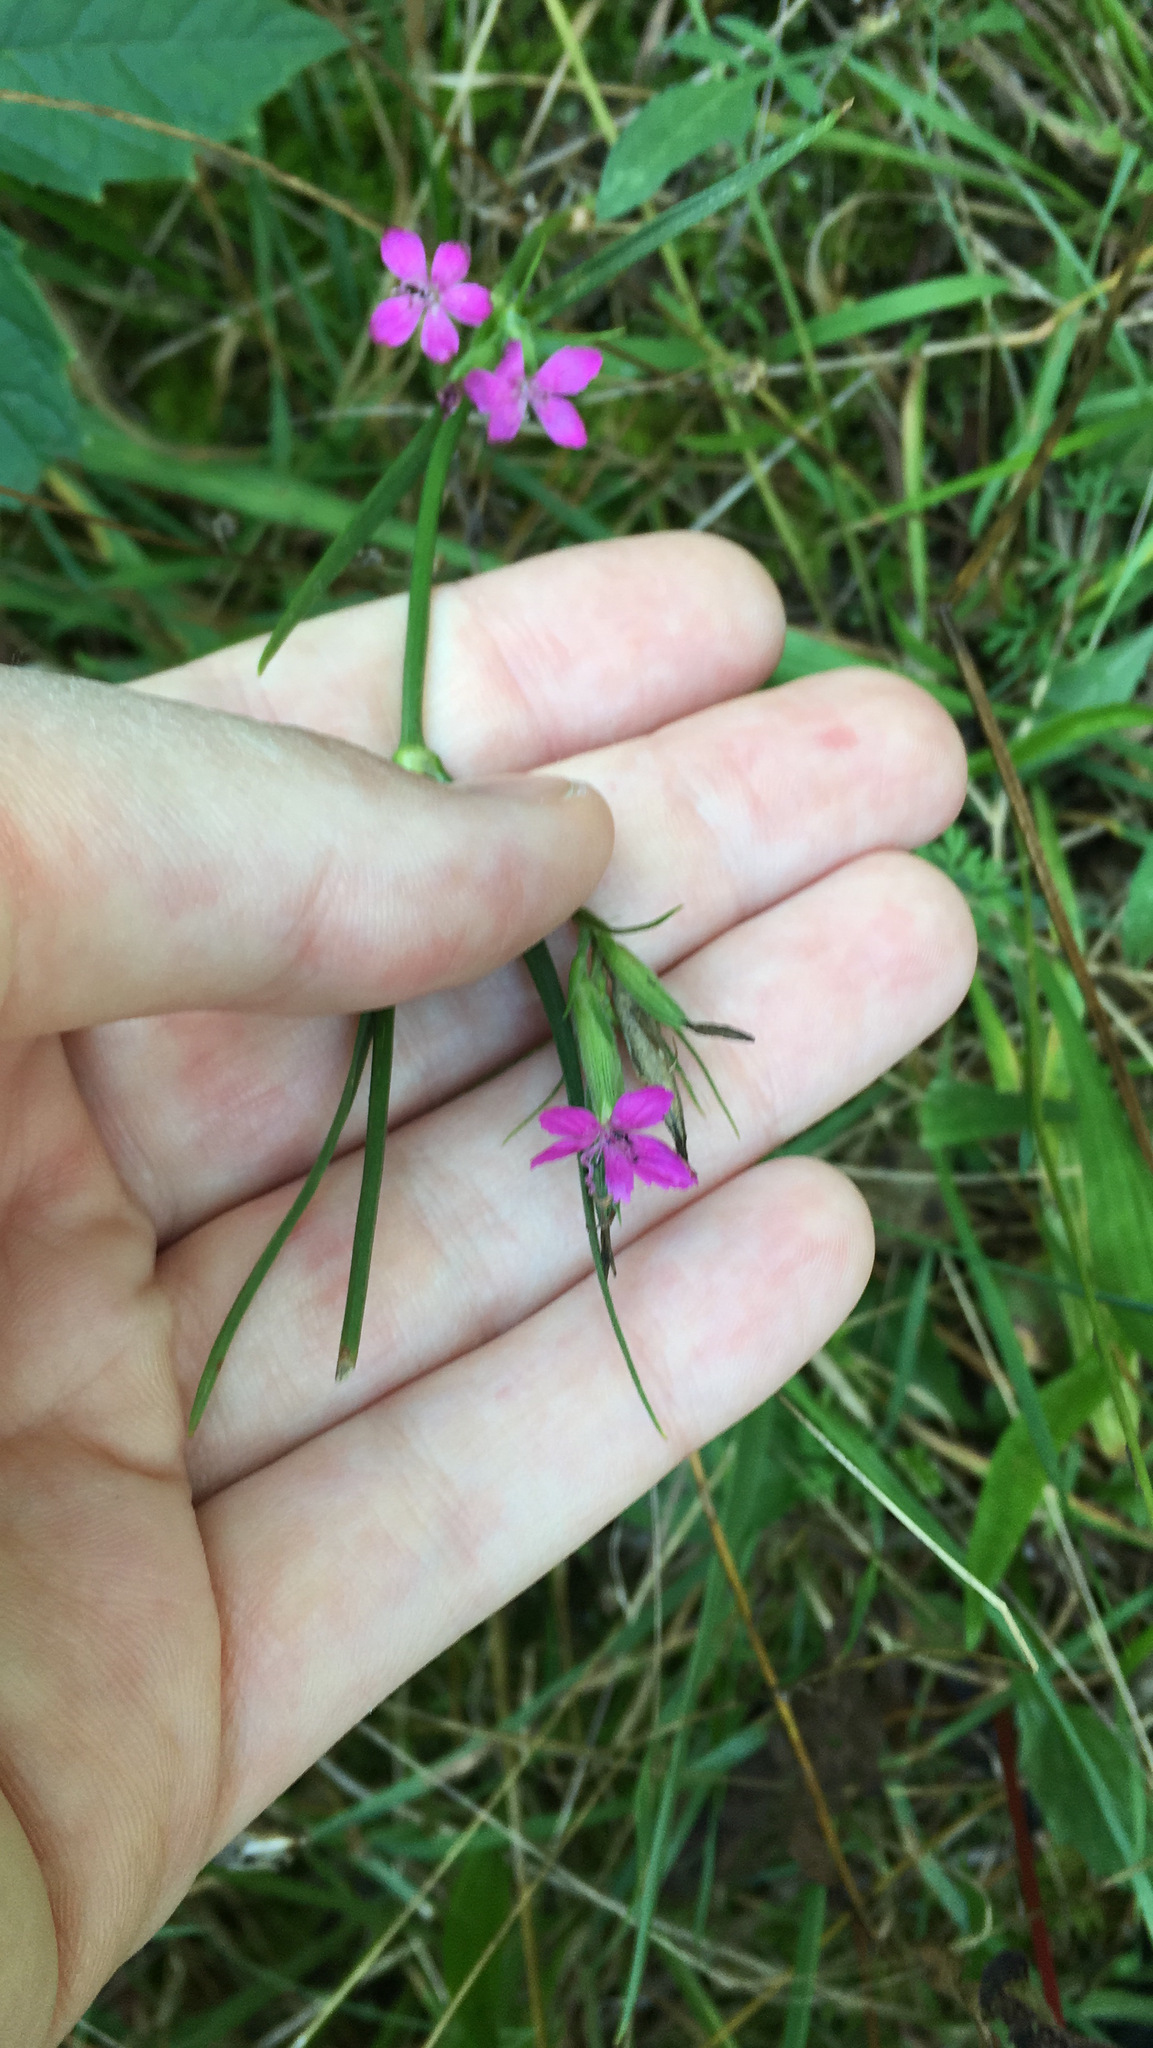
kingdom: Plantae
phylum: Tracheophyta
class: Magnoliopsida
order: Caryophyllales
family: Caryophyllaceae
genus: Dianthus
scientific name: Dianthus armeria
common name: Deptford pink
